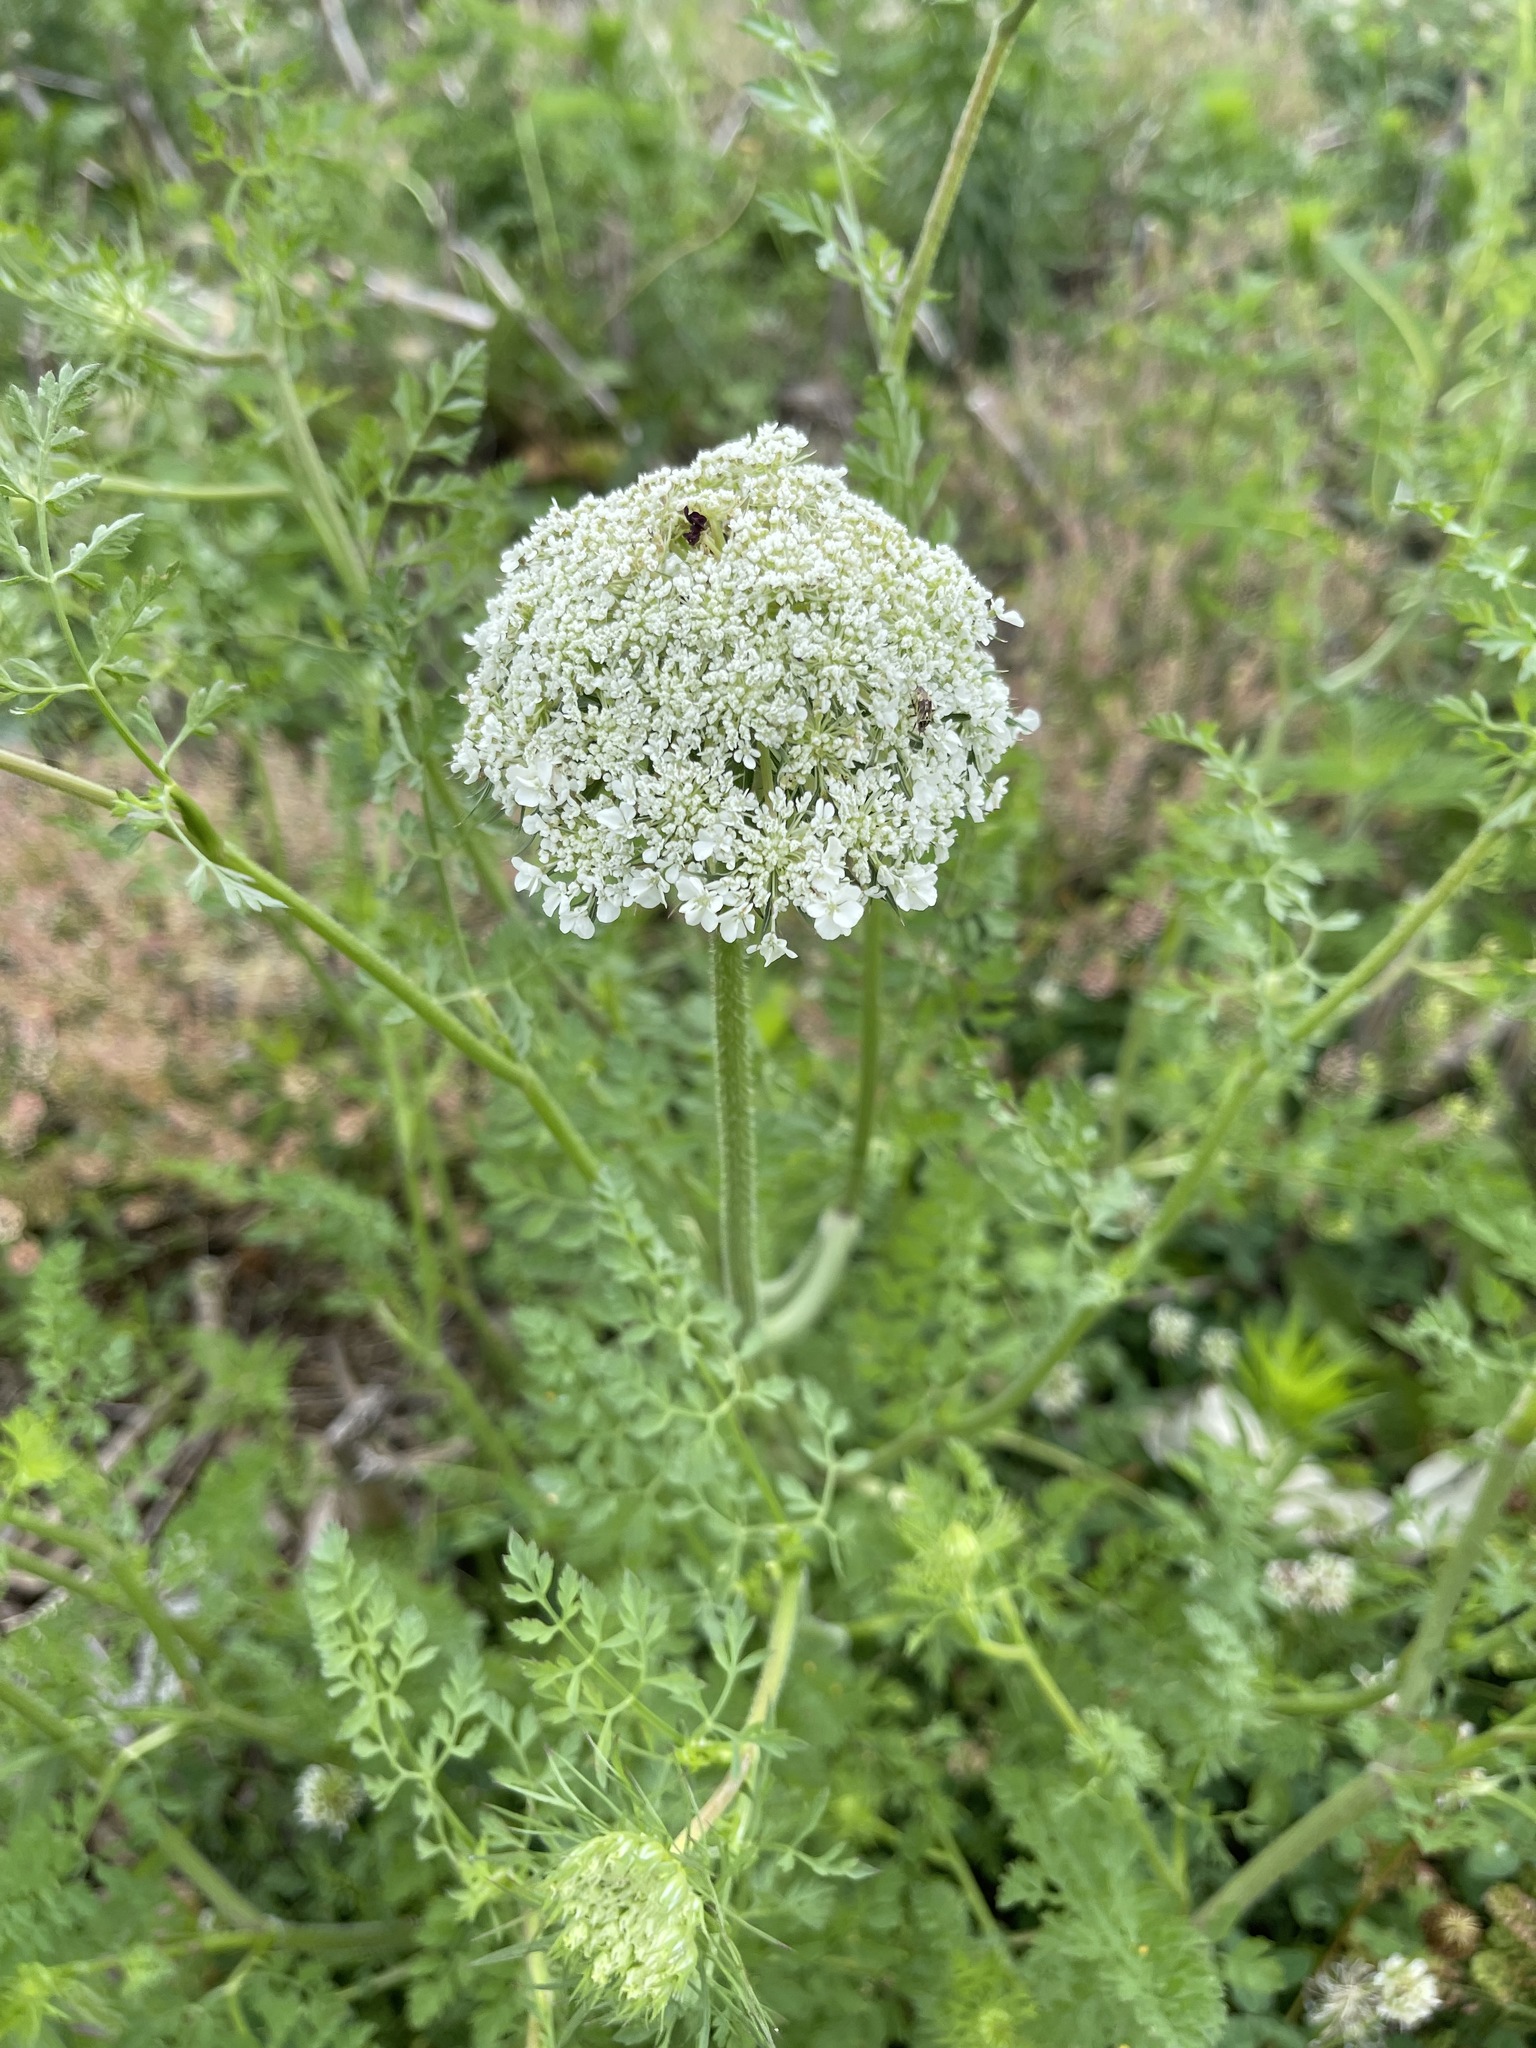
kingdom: Plantae
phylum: Tracheophyta
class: Magnoliopsida
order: Apiales
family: Apiaceae
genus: Daucus
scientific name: Daucus carota
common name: Wild carrot
